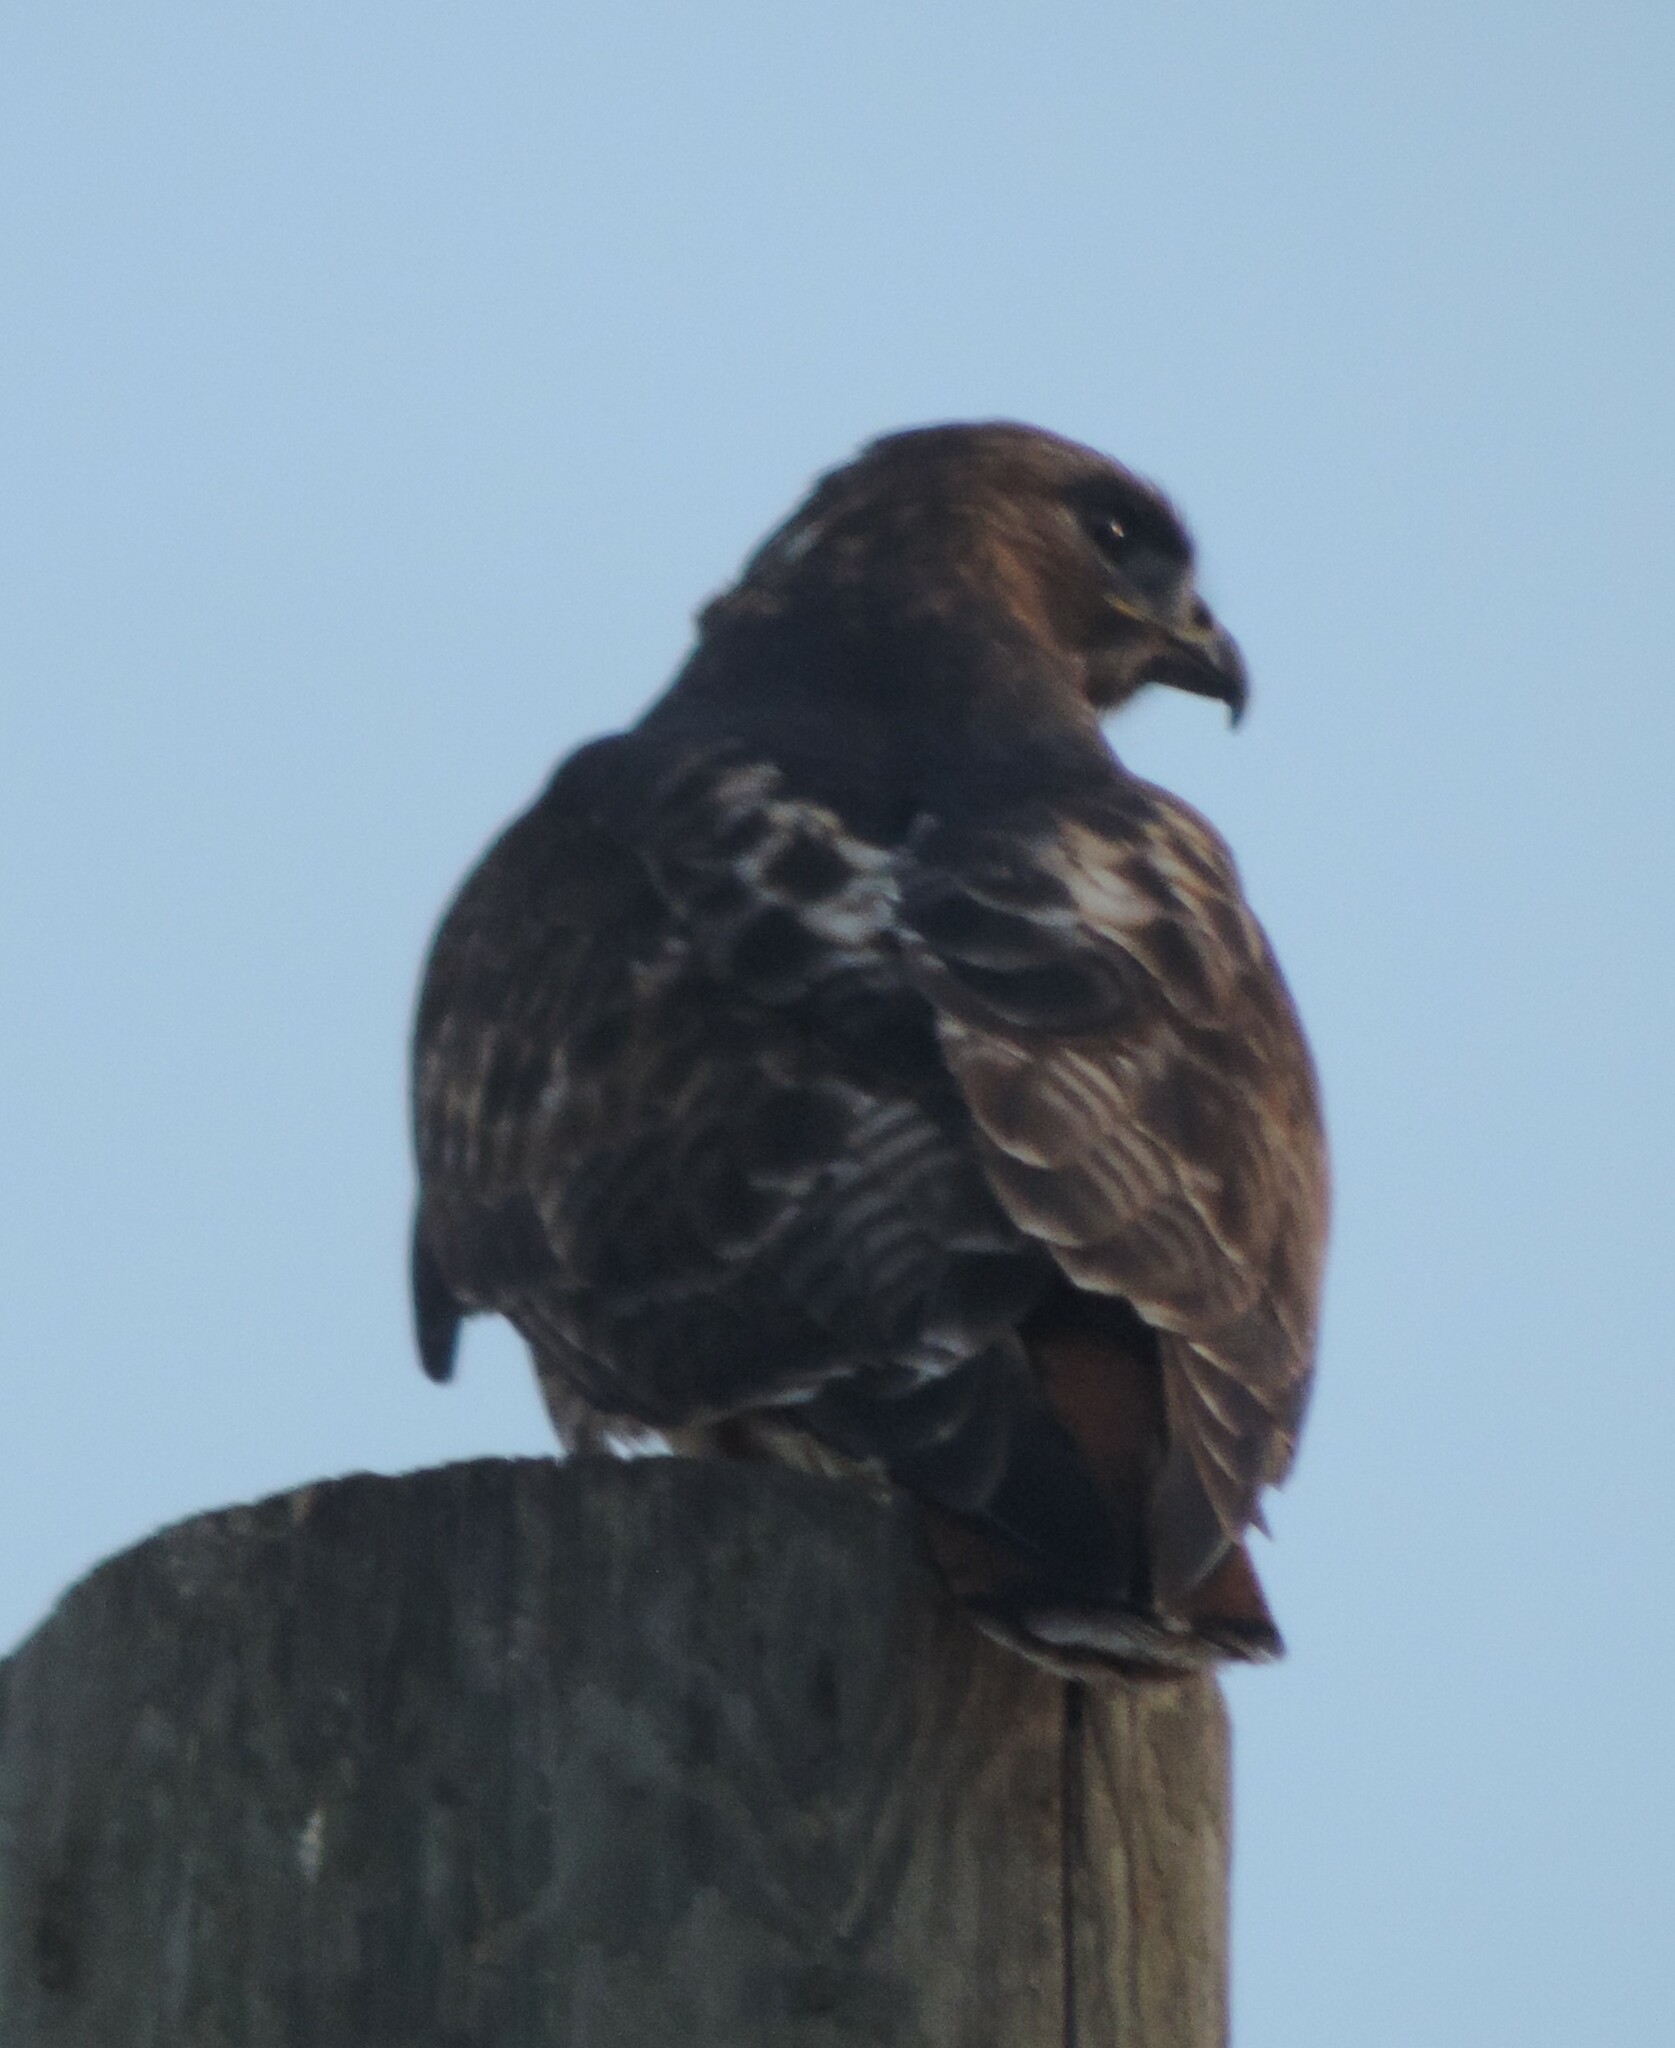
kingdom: Animalia
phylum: Chordata
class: Aves
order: Accipitriformes
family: Accipitridae
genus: Buteo
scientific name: Buteo jamaicensis
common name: Red-tailed hawk
